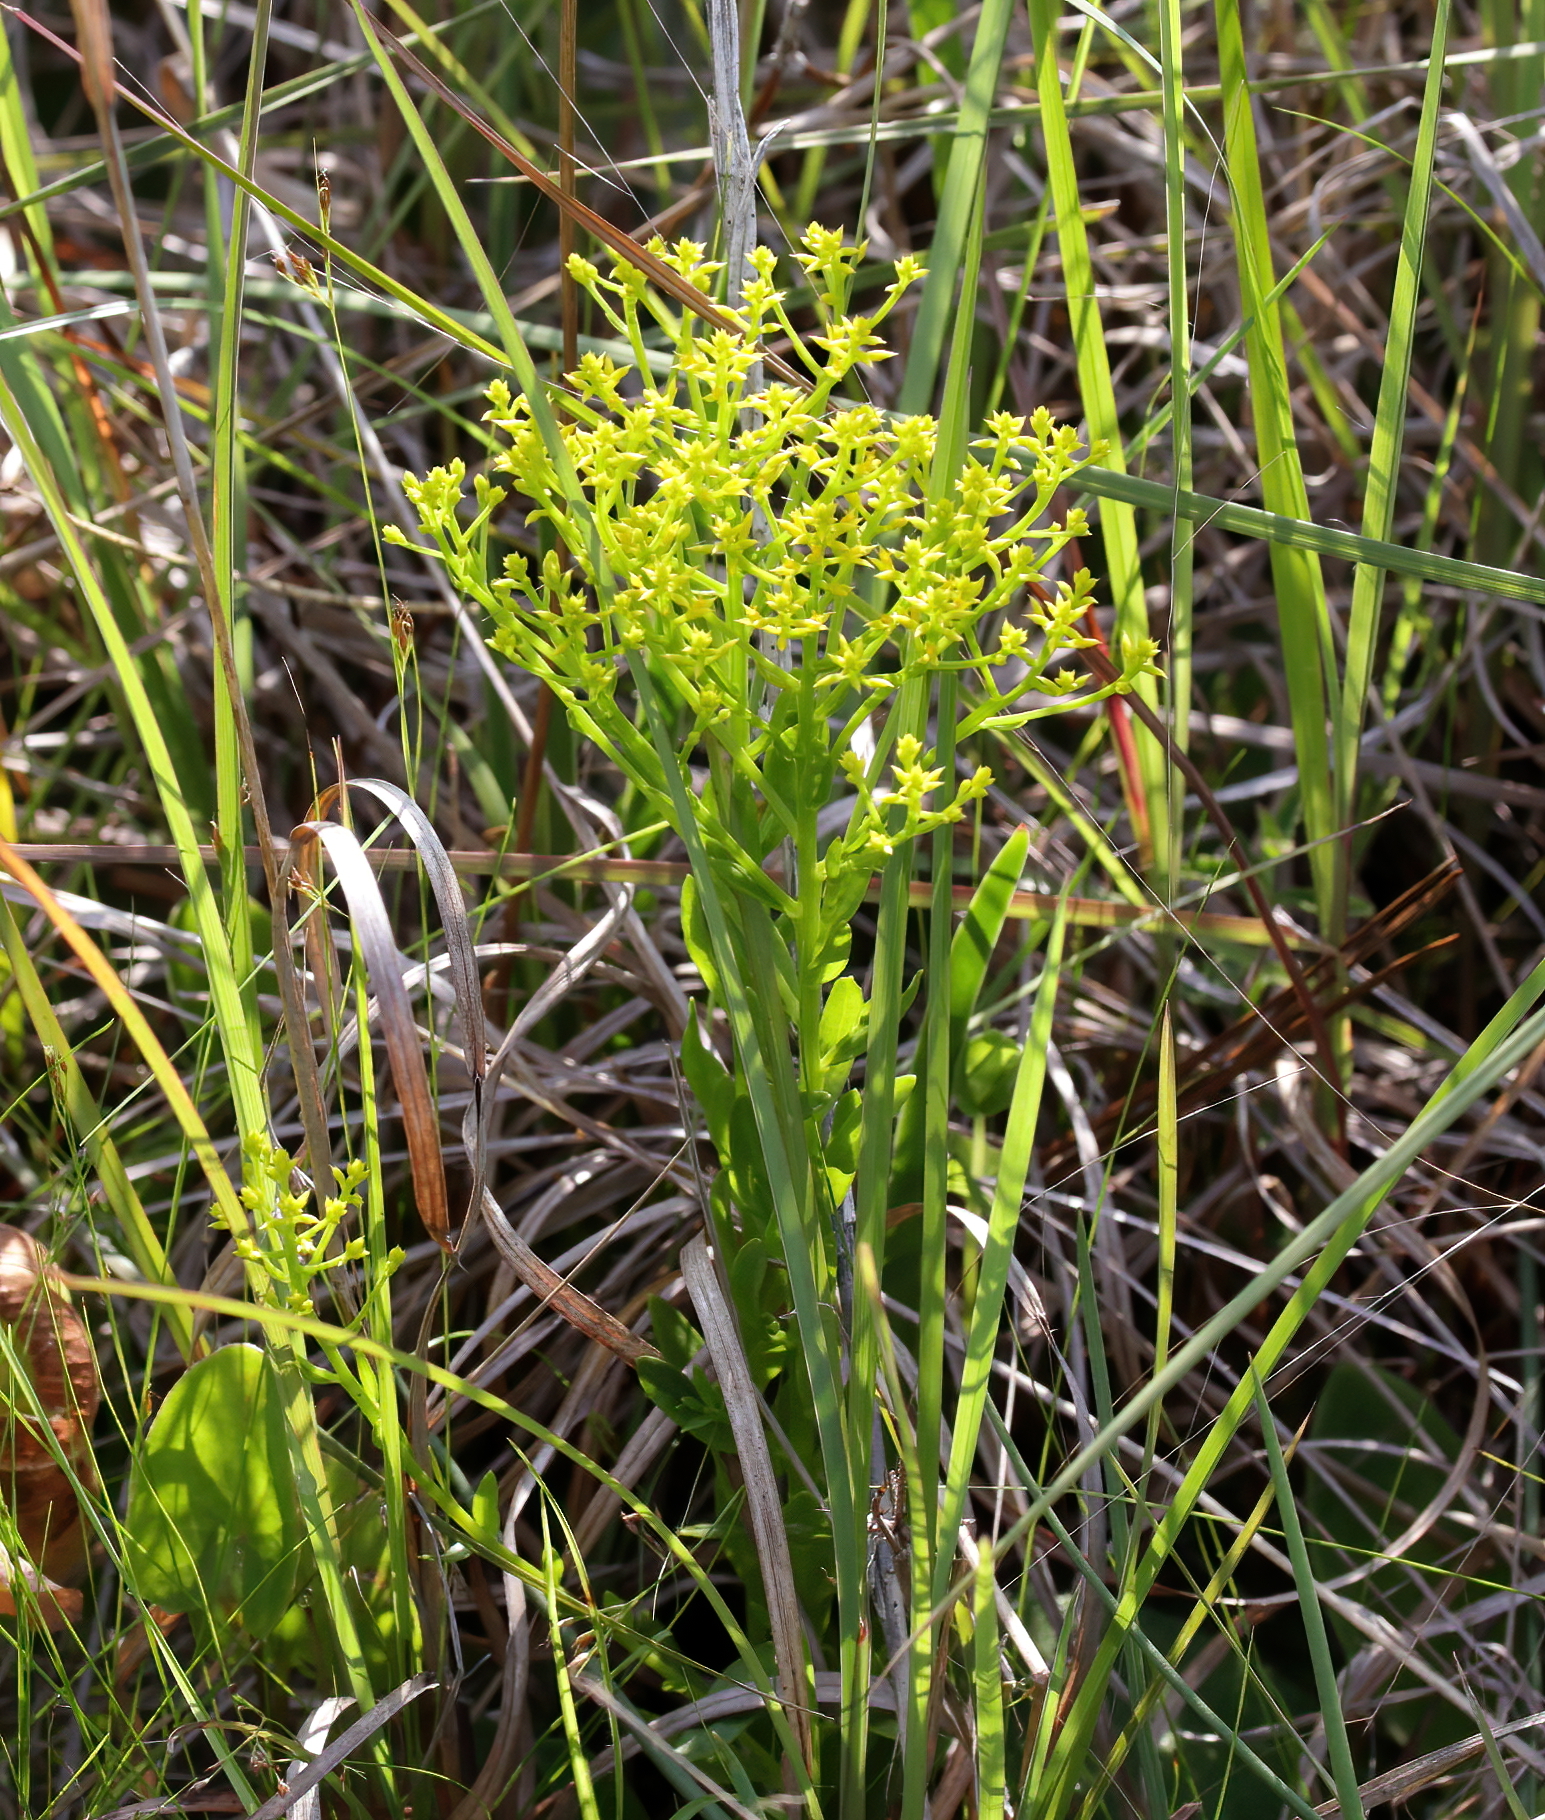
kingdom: Plantae
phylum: Tracheophyta
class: Magnoliopsida
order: Fabales
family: Polygalaceae
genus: Polygala
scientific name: Polygala ramosa
